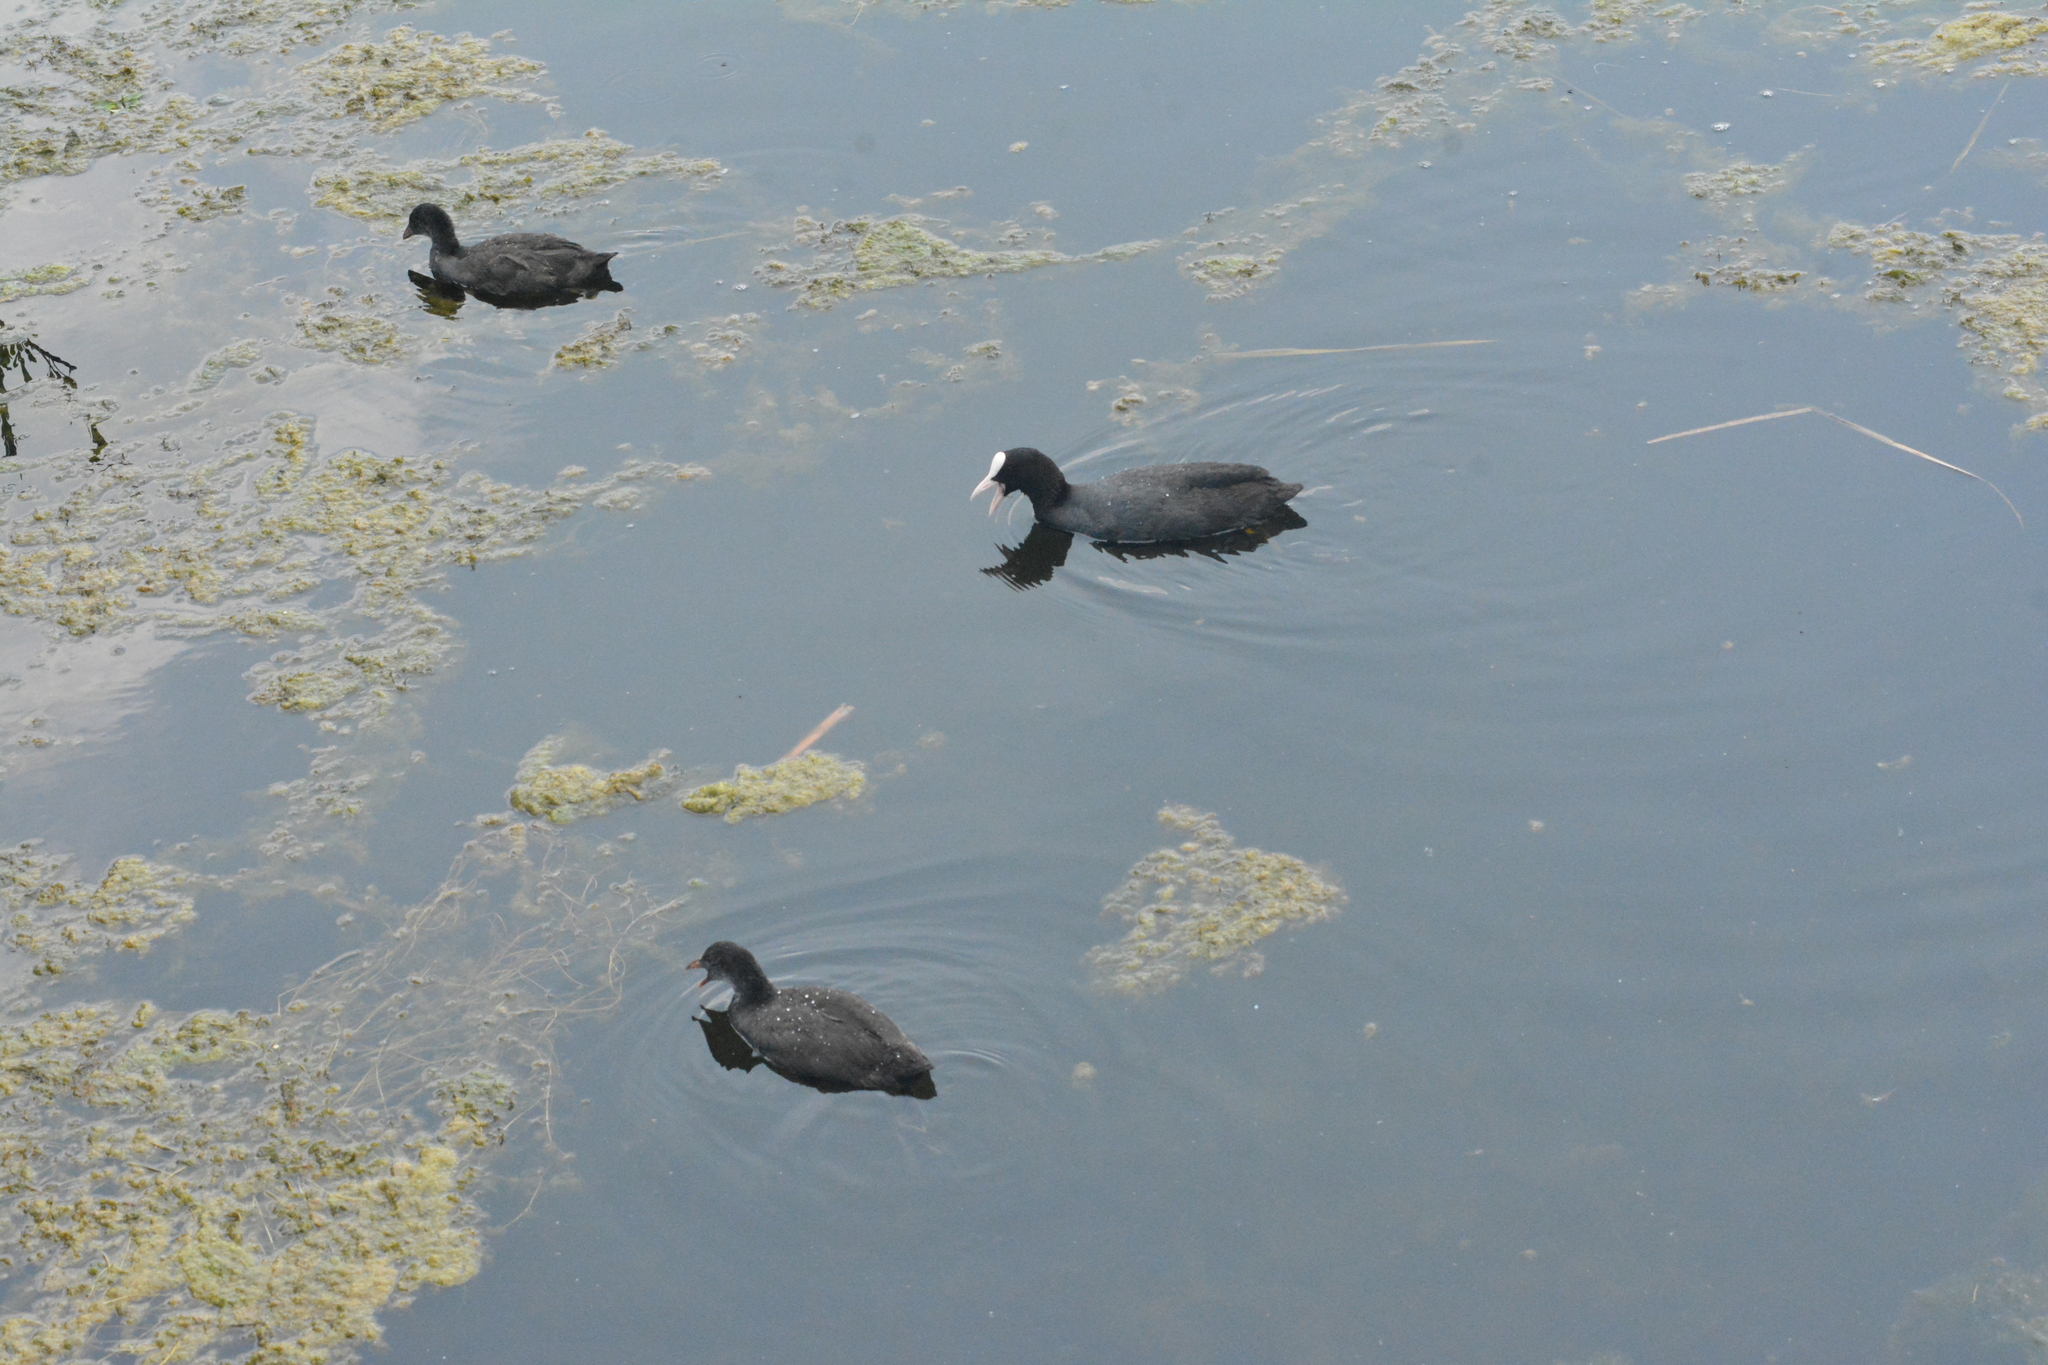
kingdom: Animalia
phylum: Chordata
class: Aves
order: Gruiformes
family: Rallidae
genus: Fulica
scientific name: Fulica atra
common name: Eurasian coot
